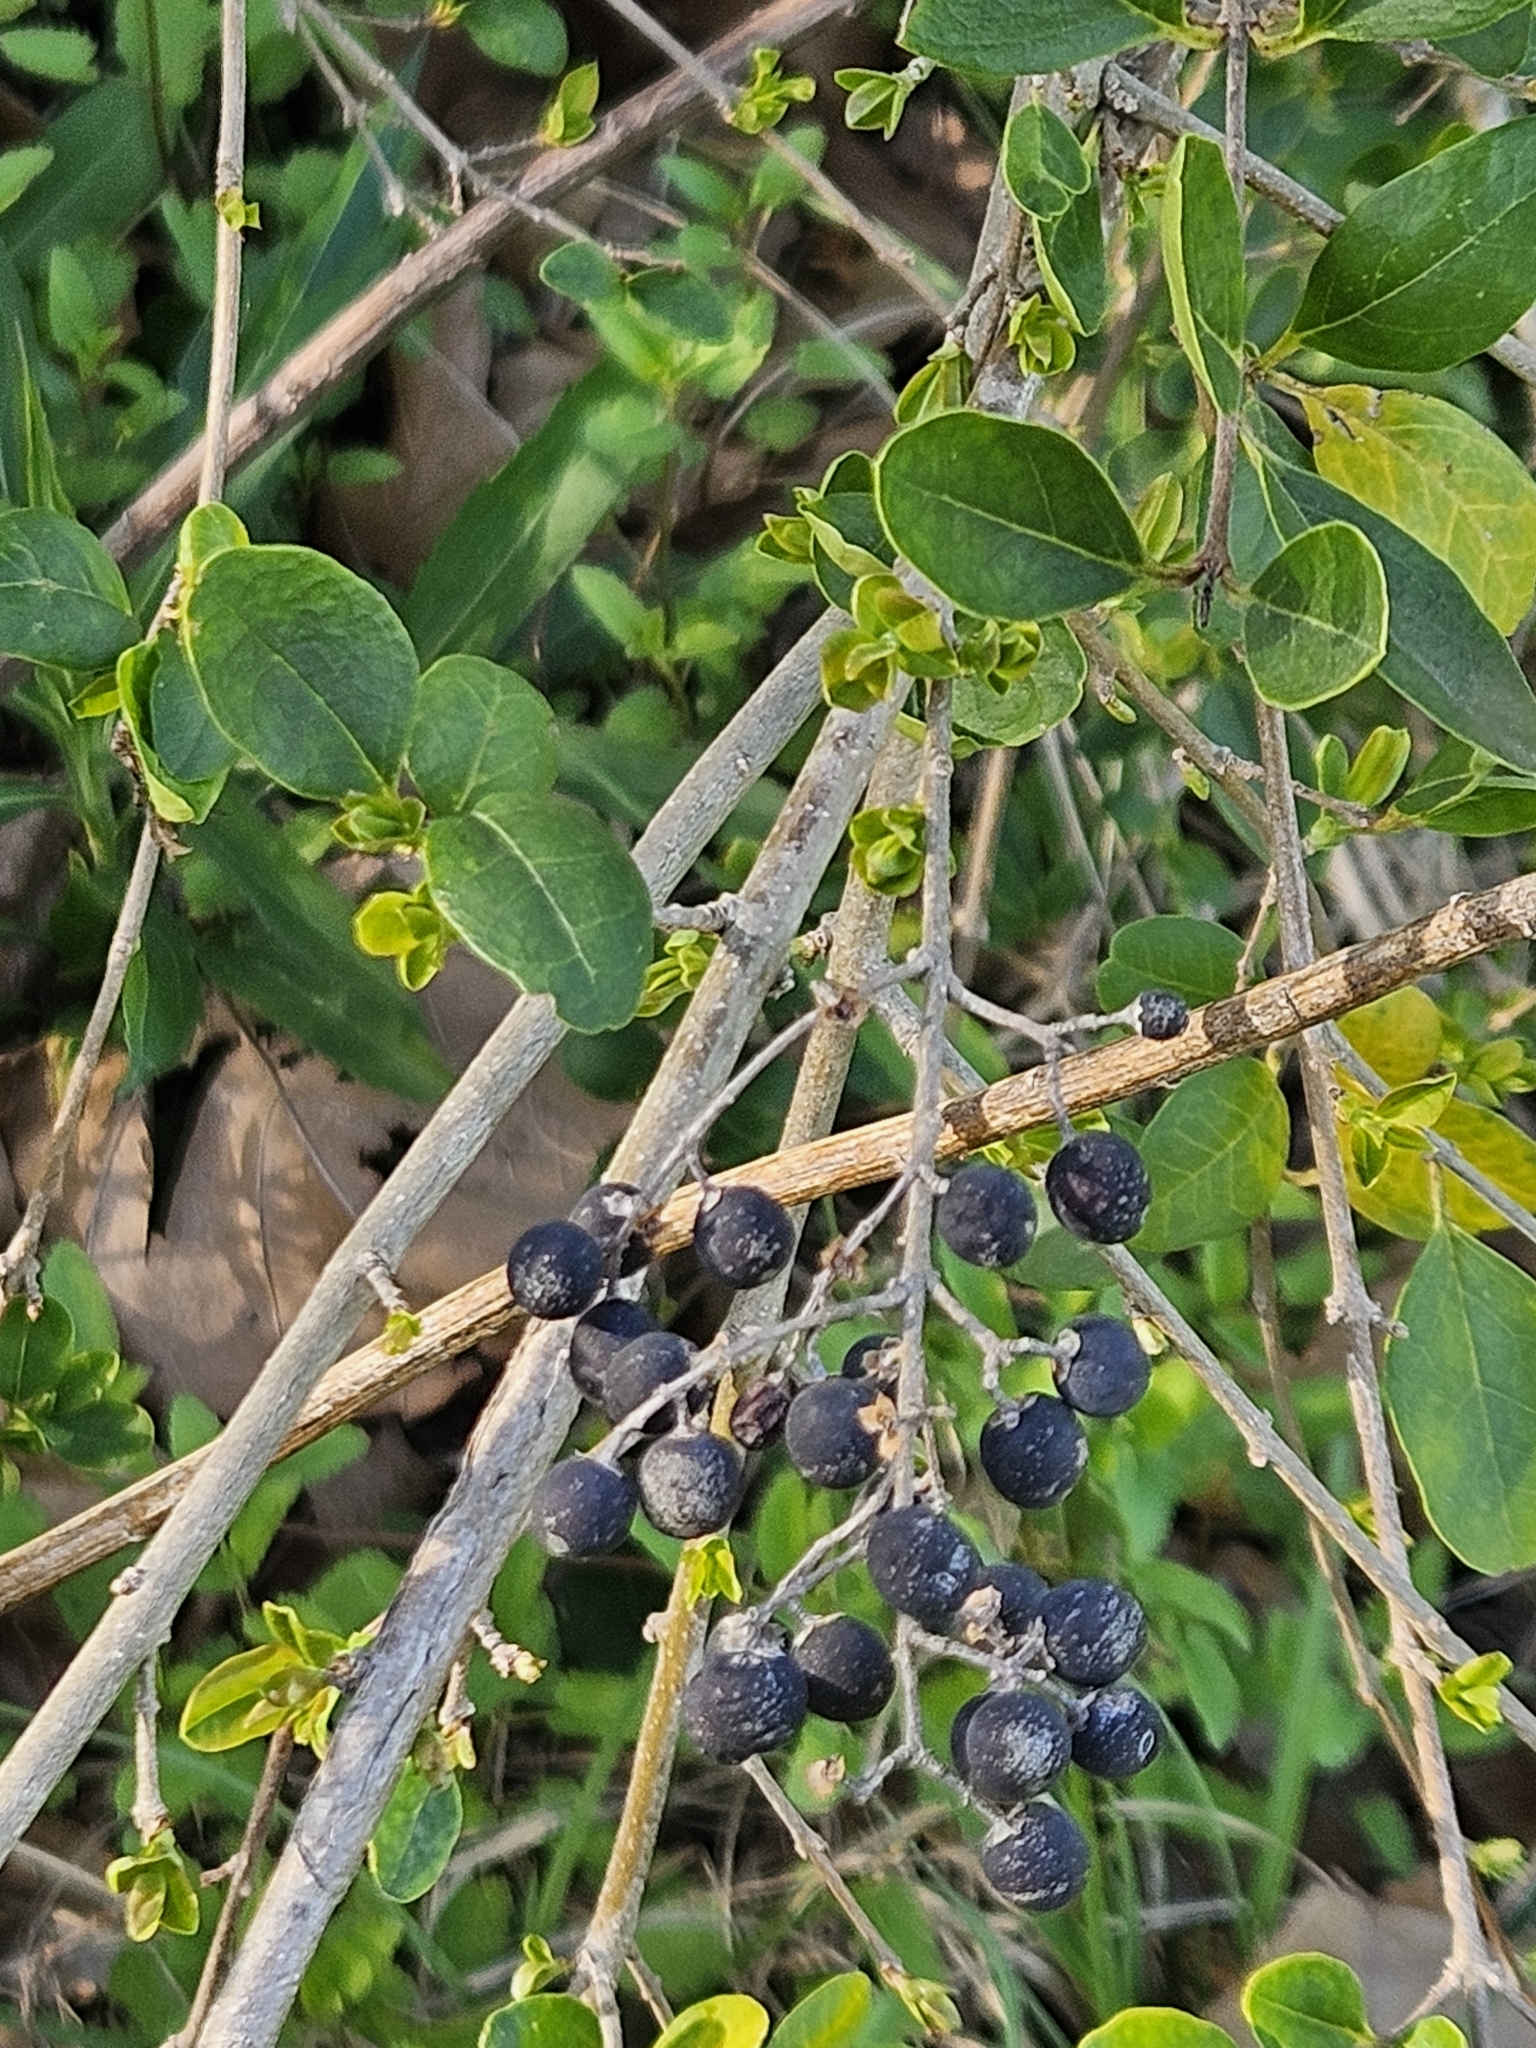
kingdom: Plantae
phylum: Tracheophyta
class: Magnoliopsida
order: Lamiales
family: Oleaceae
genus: Ligustrum
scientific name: Ligustrum sinense
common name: Chinese privet
